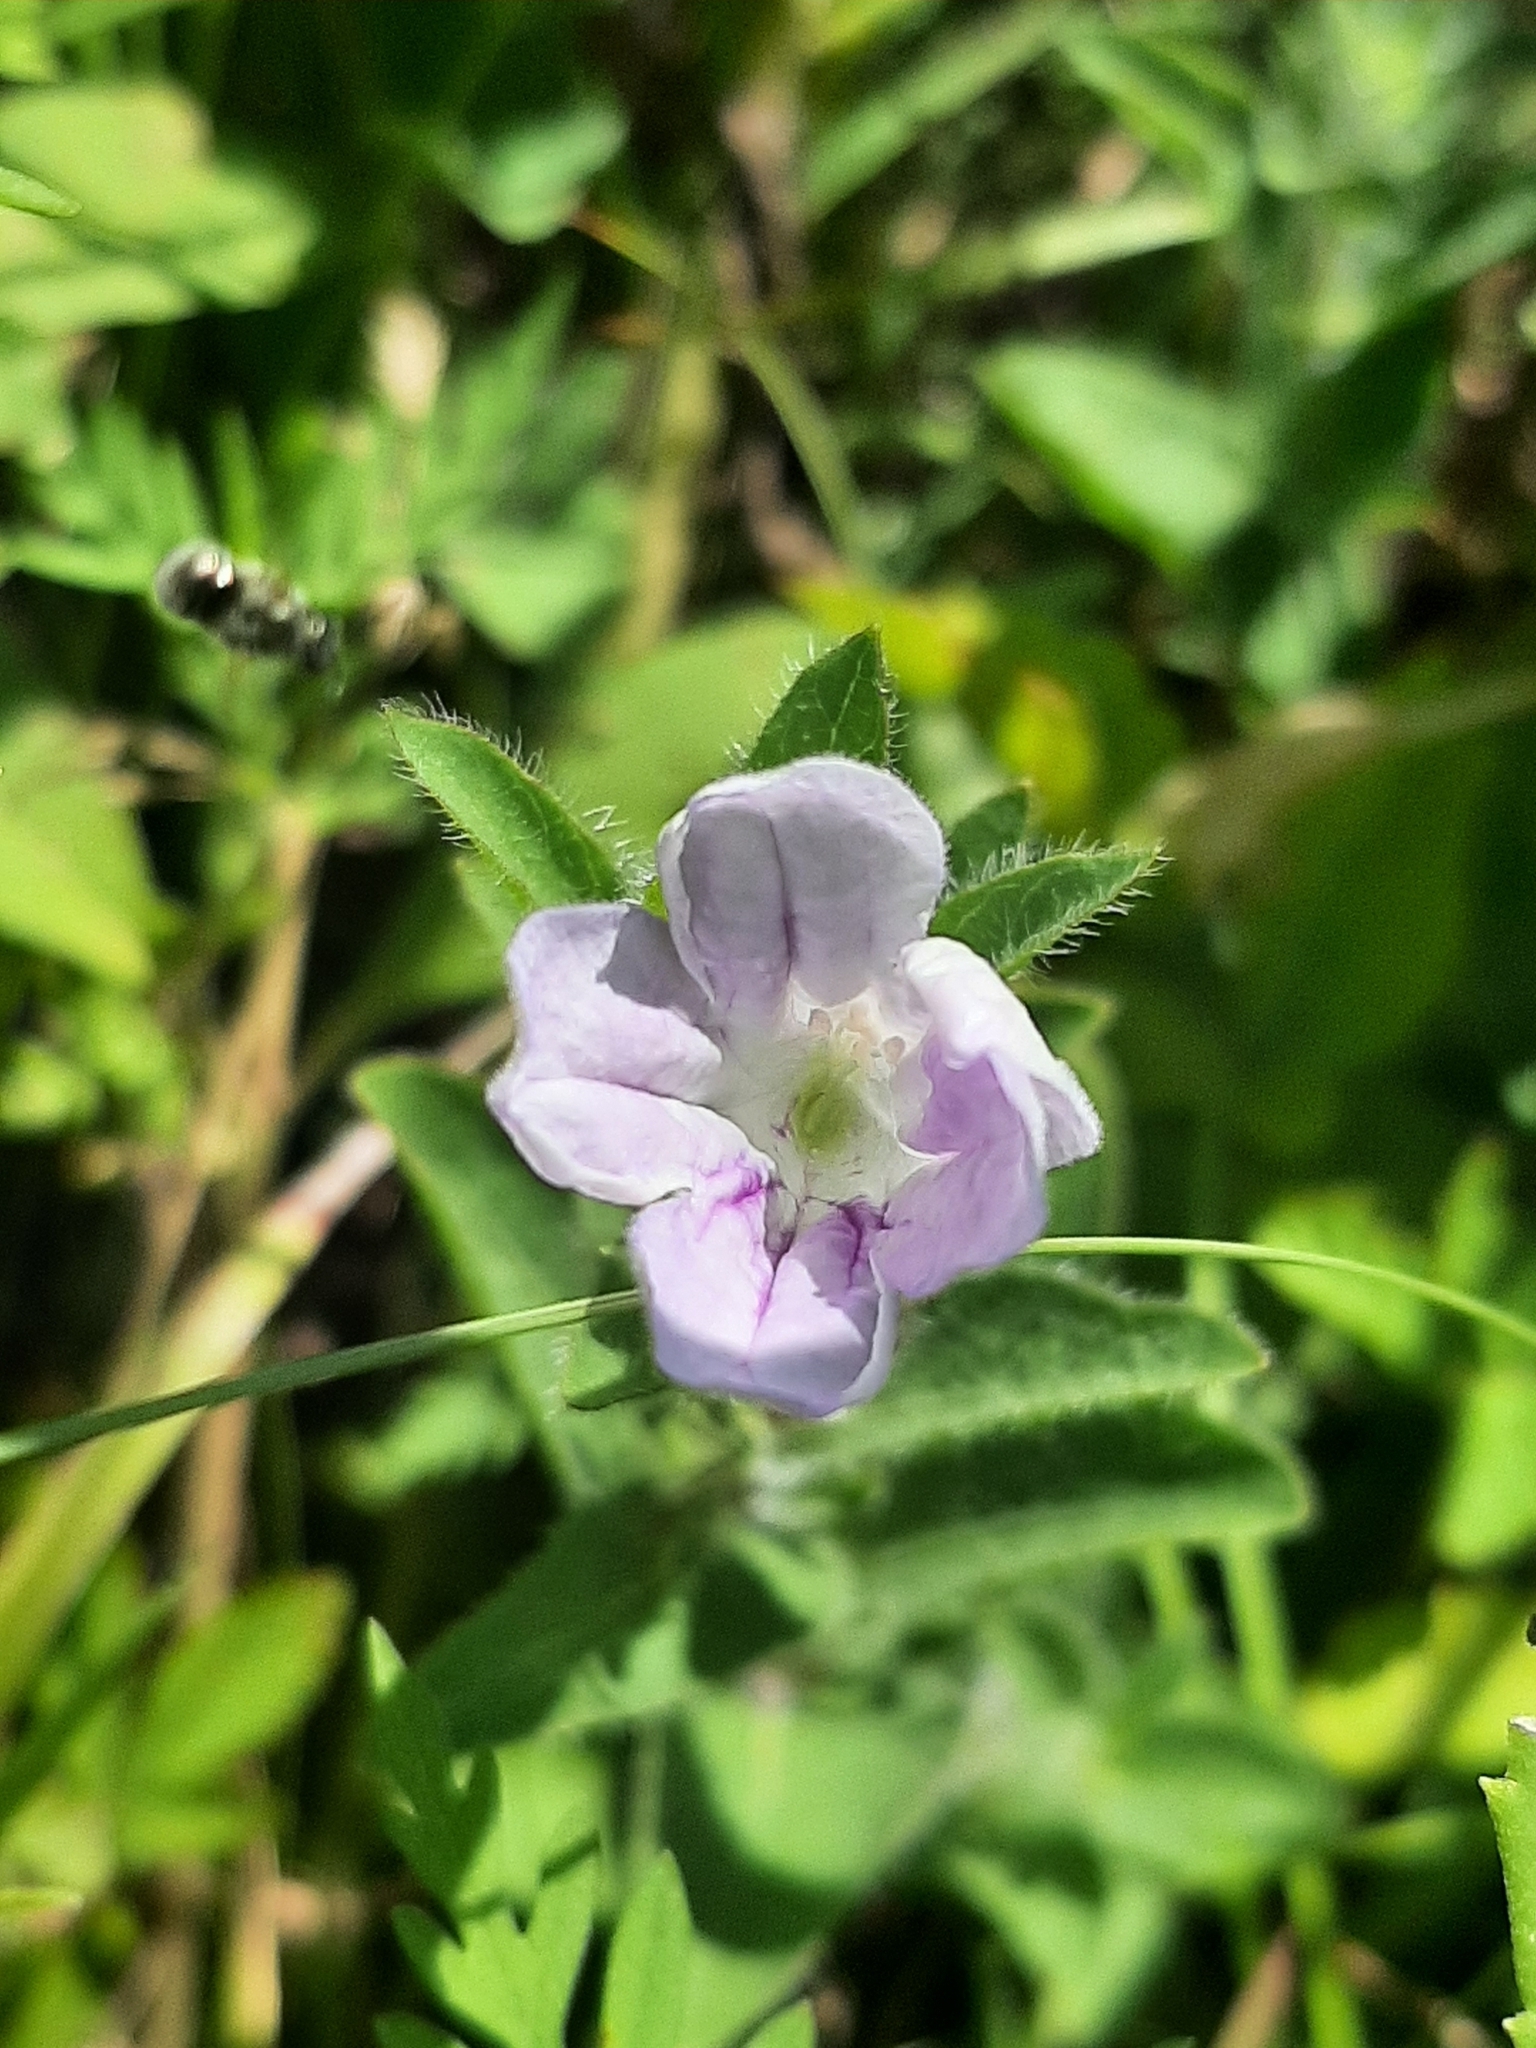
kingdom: Plantae
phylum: Tracheophyta
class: Magnoliopsida
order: Lamiales
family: Acanthaceae
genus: Ruellia
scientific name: Ruellia humilis
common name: Fringe-leaf ruellia
